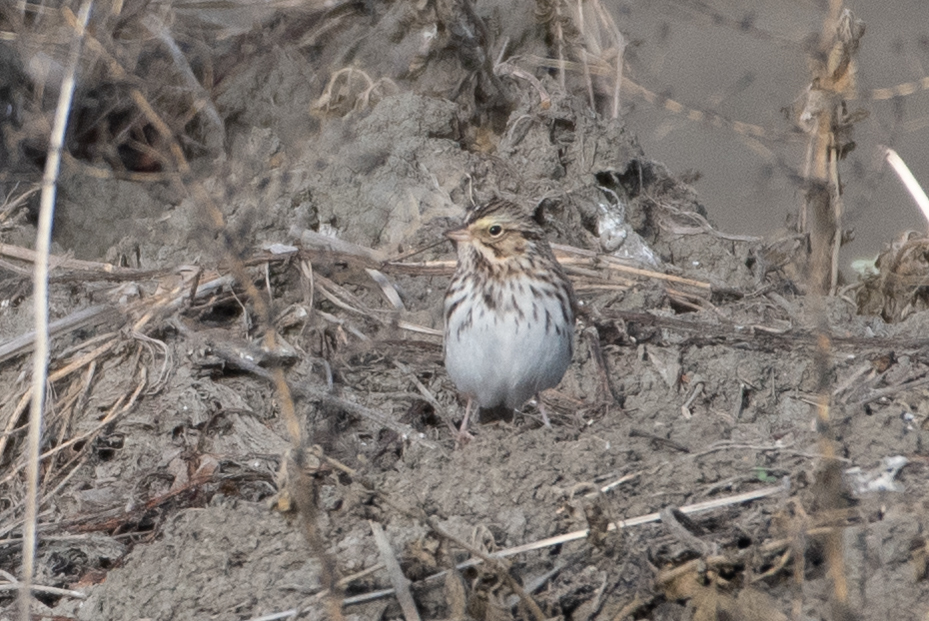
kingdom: Animalia
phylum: Chordata
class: Aves
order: Passeriformes
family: Passerellidae
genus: Passerculus
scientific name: Passerculus sandwichensis
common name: Savannah sparrow
